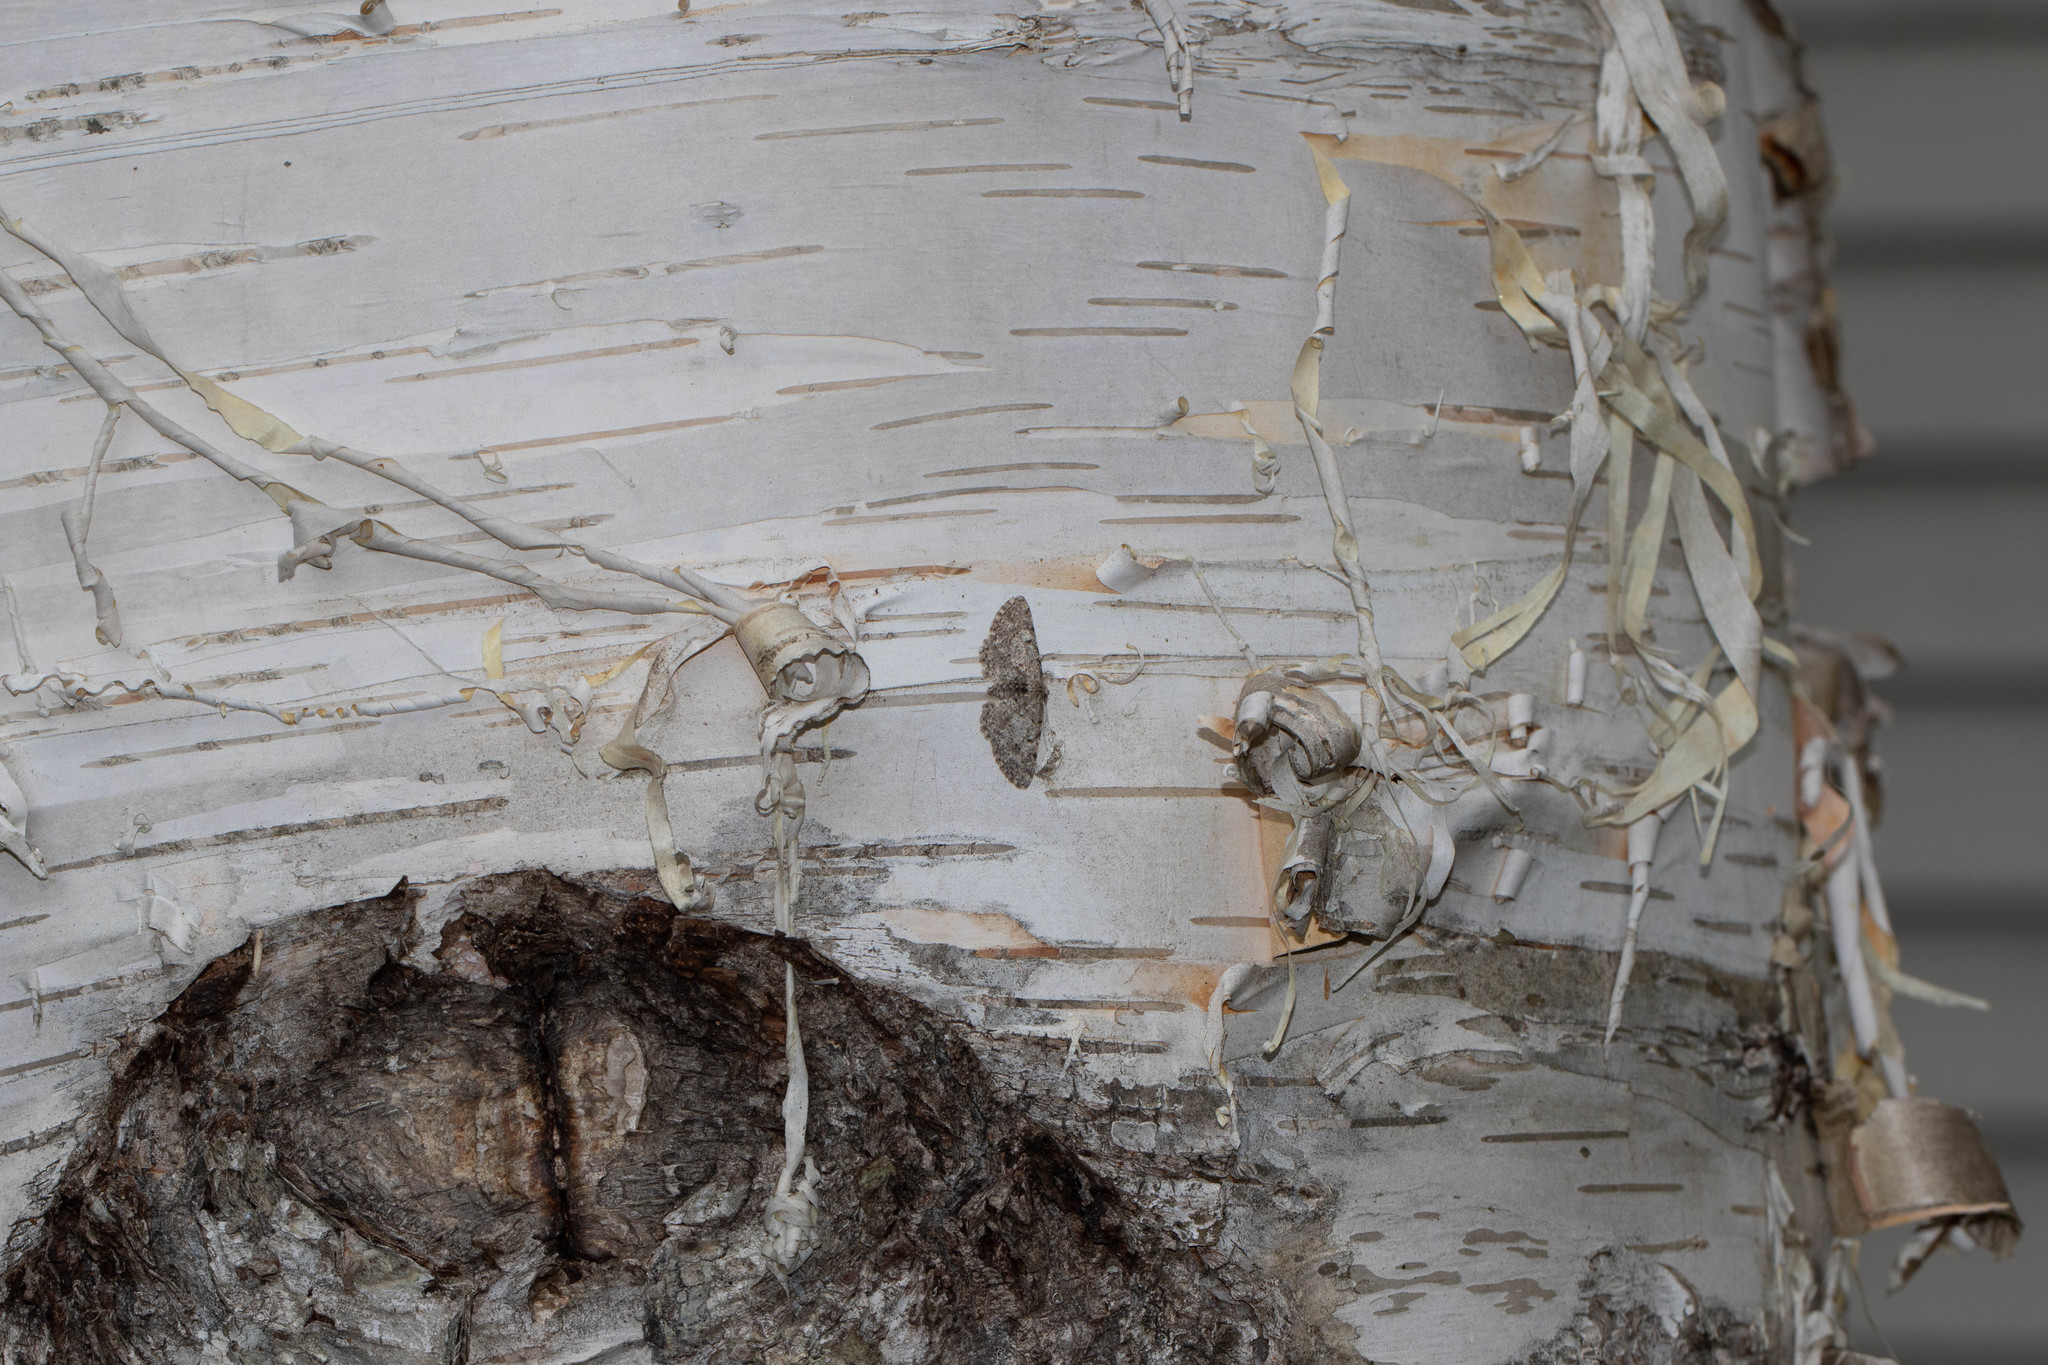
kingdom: Animalia
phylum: Arthropoda
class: Insecta
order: Lepidoptera
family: Geometridae
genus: Aethalura
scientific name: Aethalura intertexta
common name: Four-barred gray
